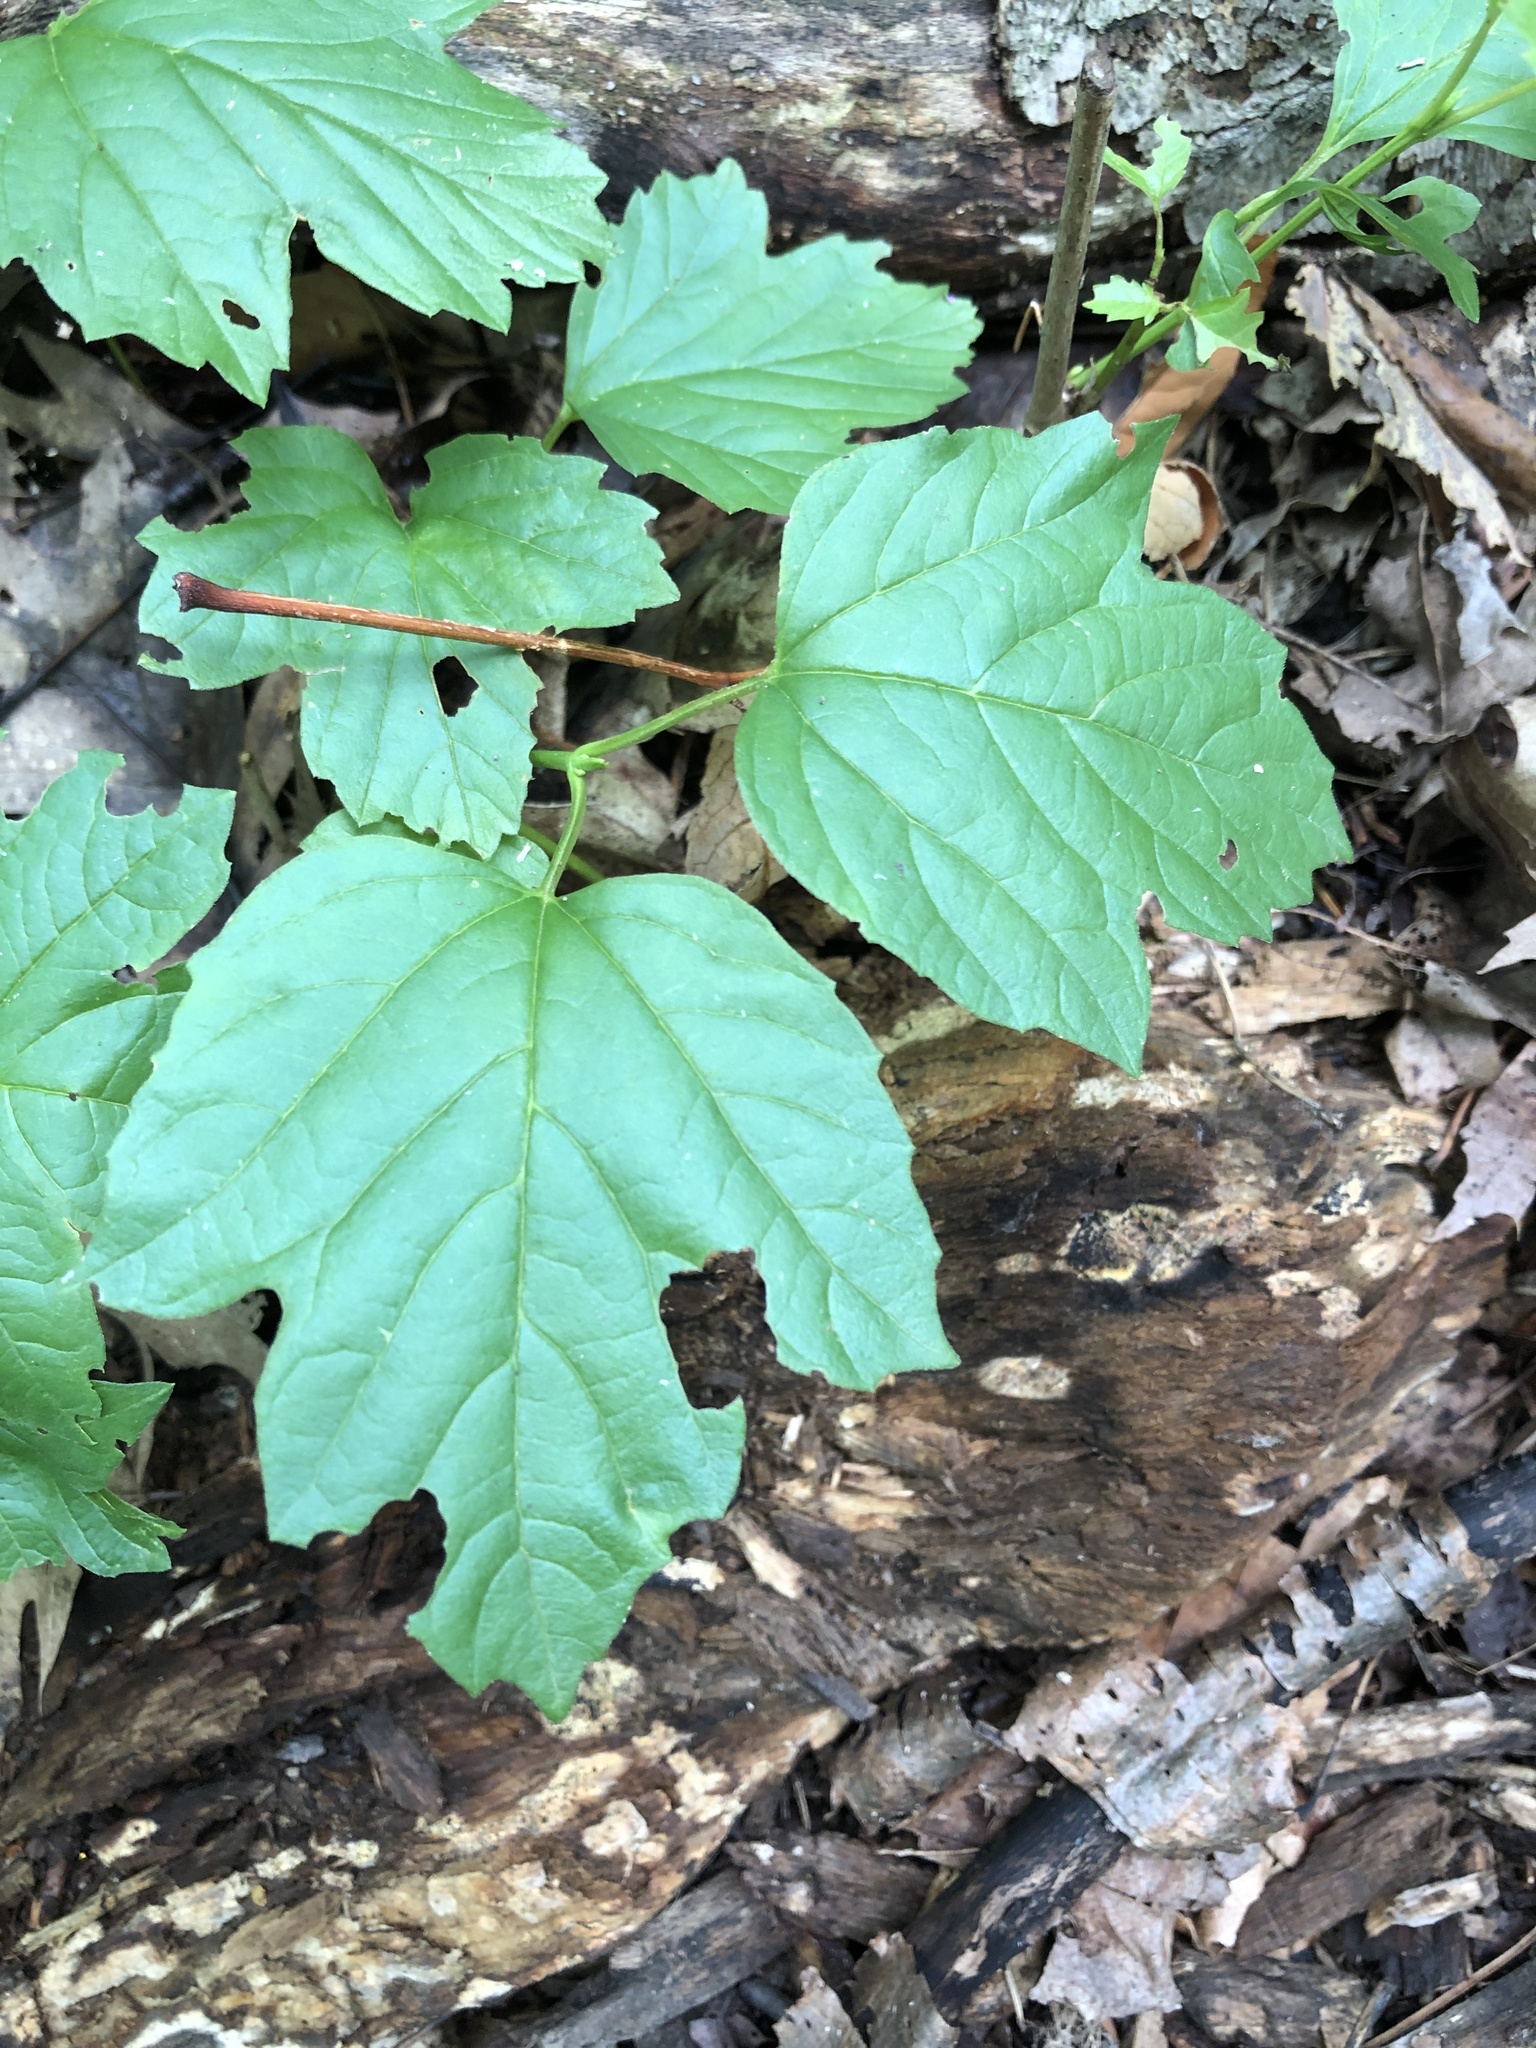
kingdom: Plantae
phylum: Tracheophyta
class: Magnoliopsida
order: Dipsacales
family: Viburnaceae
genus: Viburnum
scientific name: Viburnum opulus
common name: Guelder-rose
